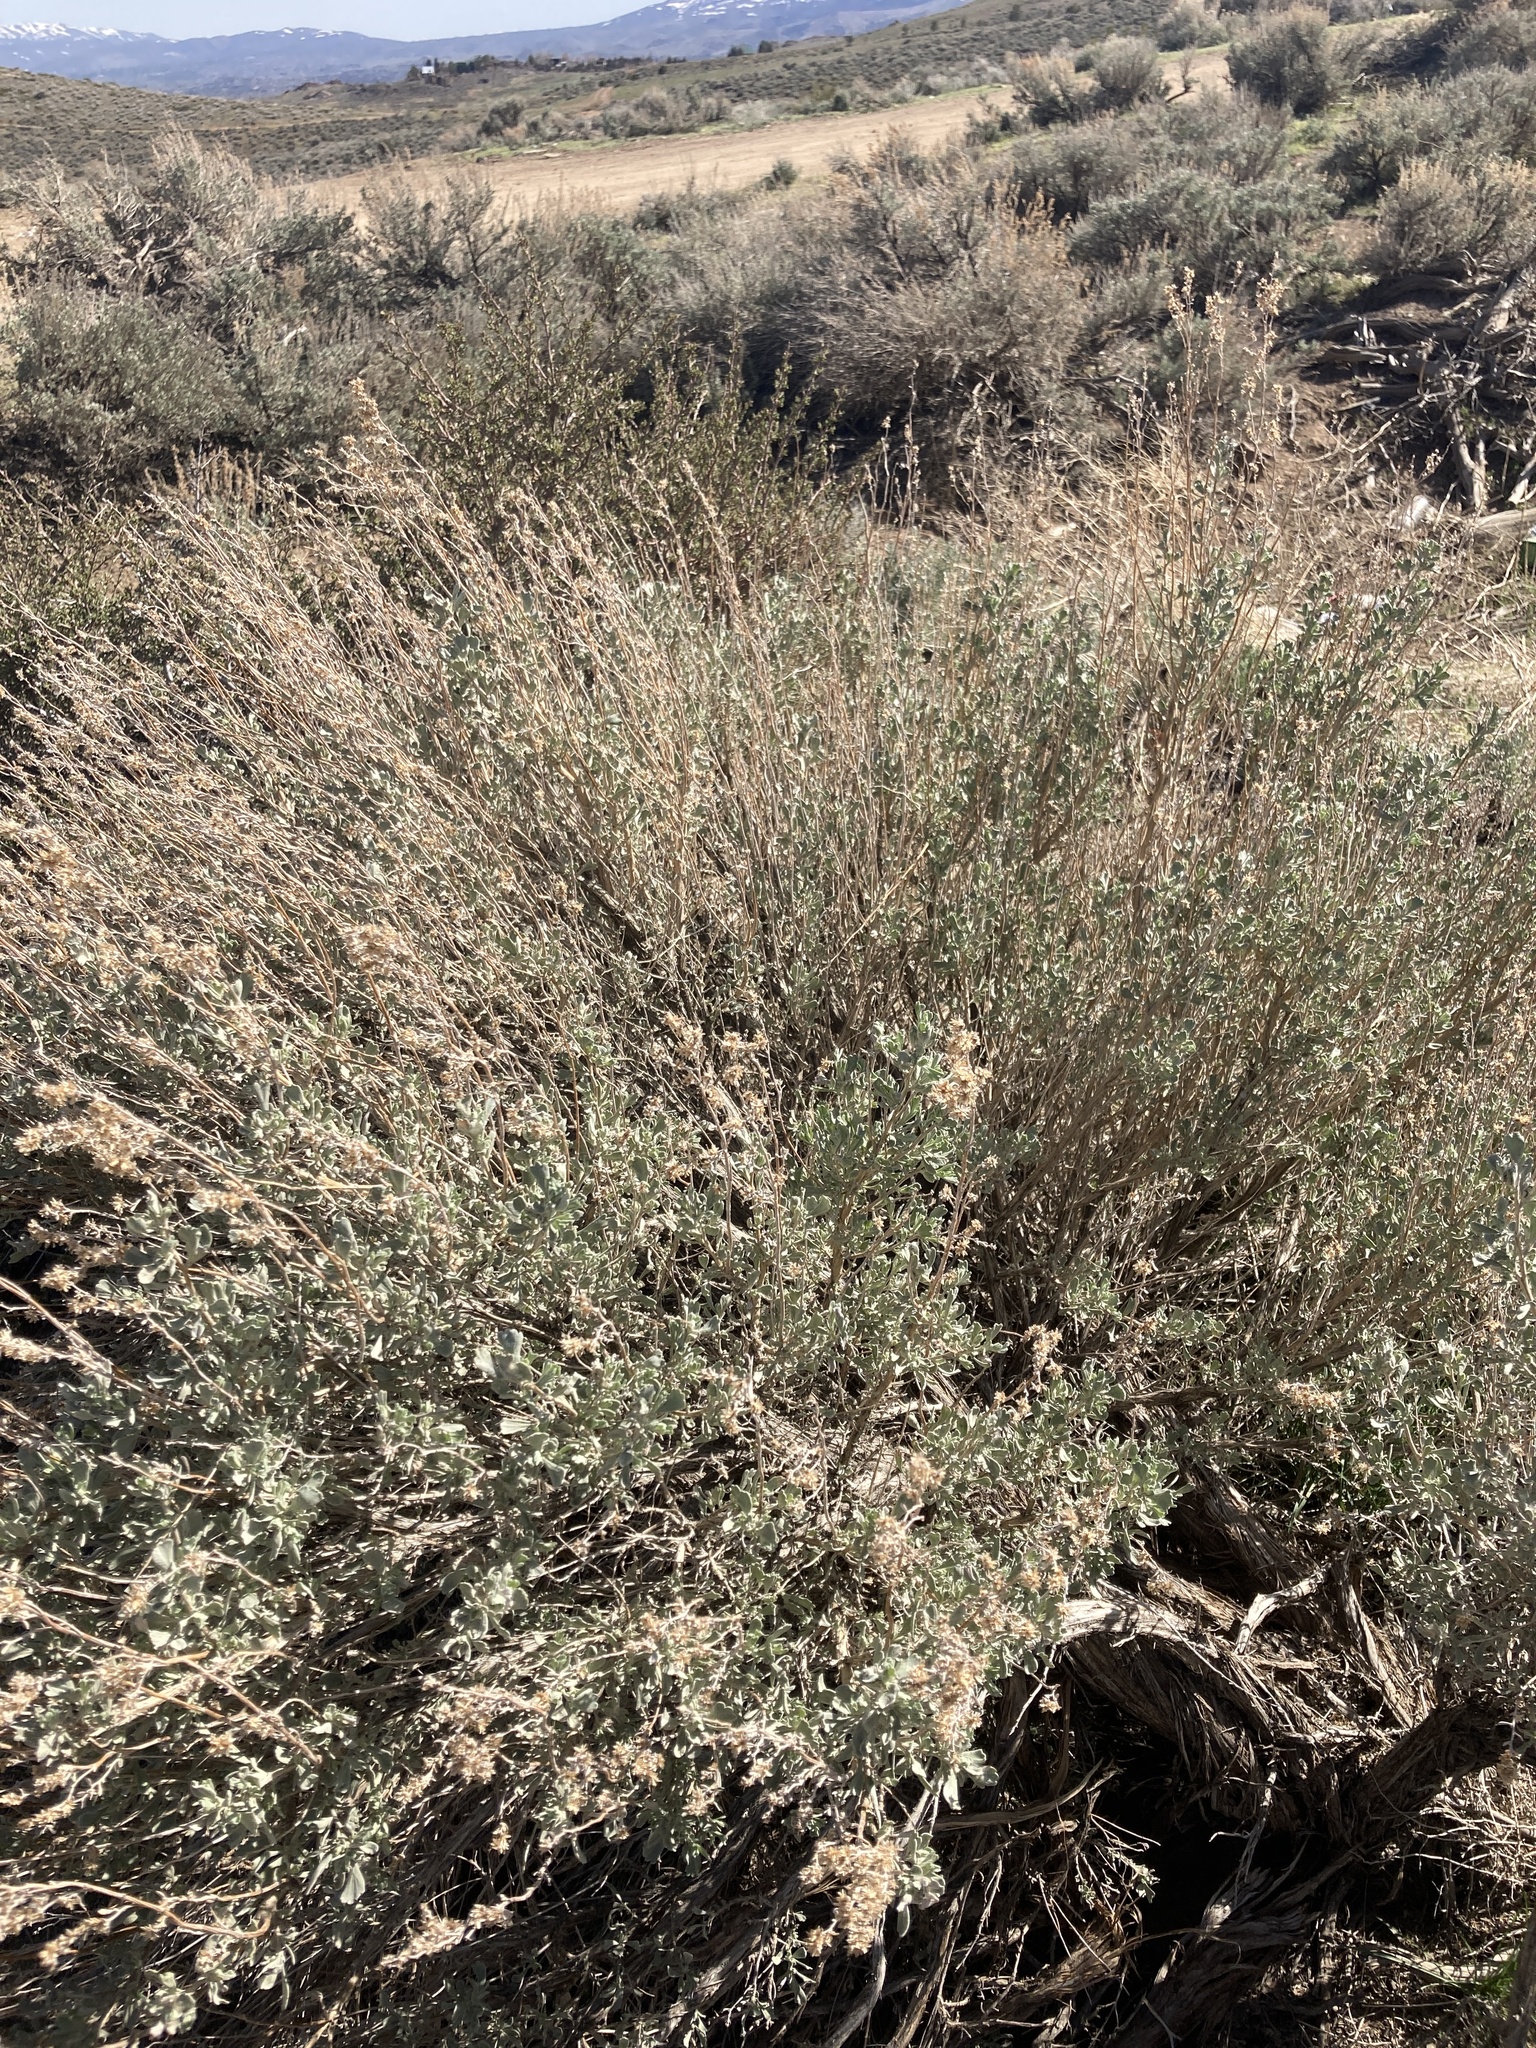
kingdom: Plantae
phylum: Tracheophyta
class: Magnoliopsida
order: Asterales
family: Asteraceae
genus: Artemisia
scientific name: Artemisia tridentata
